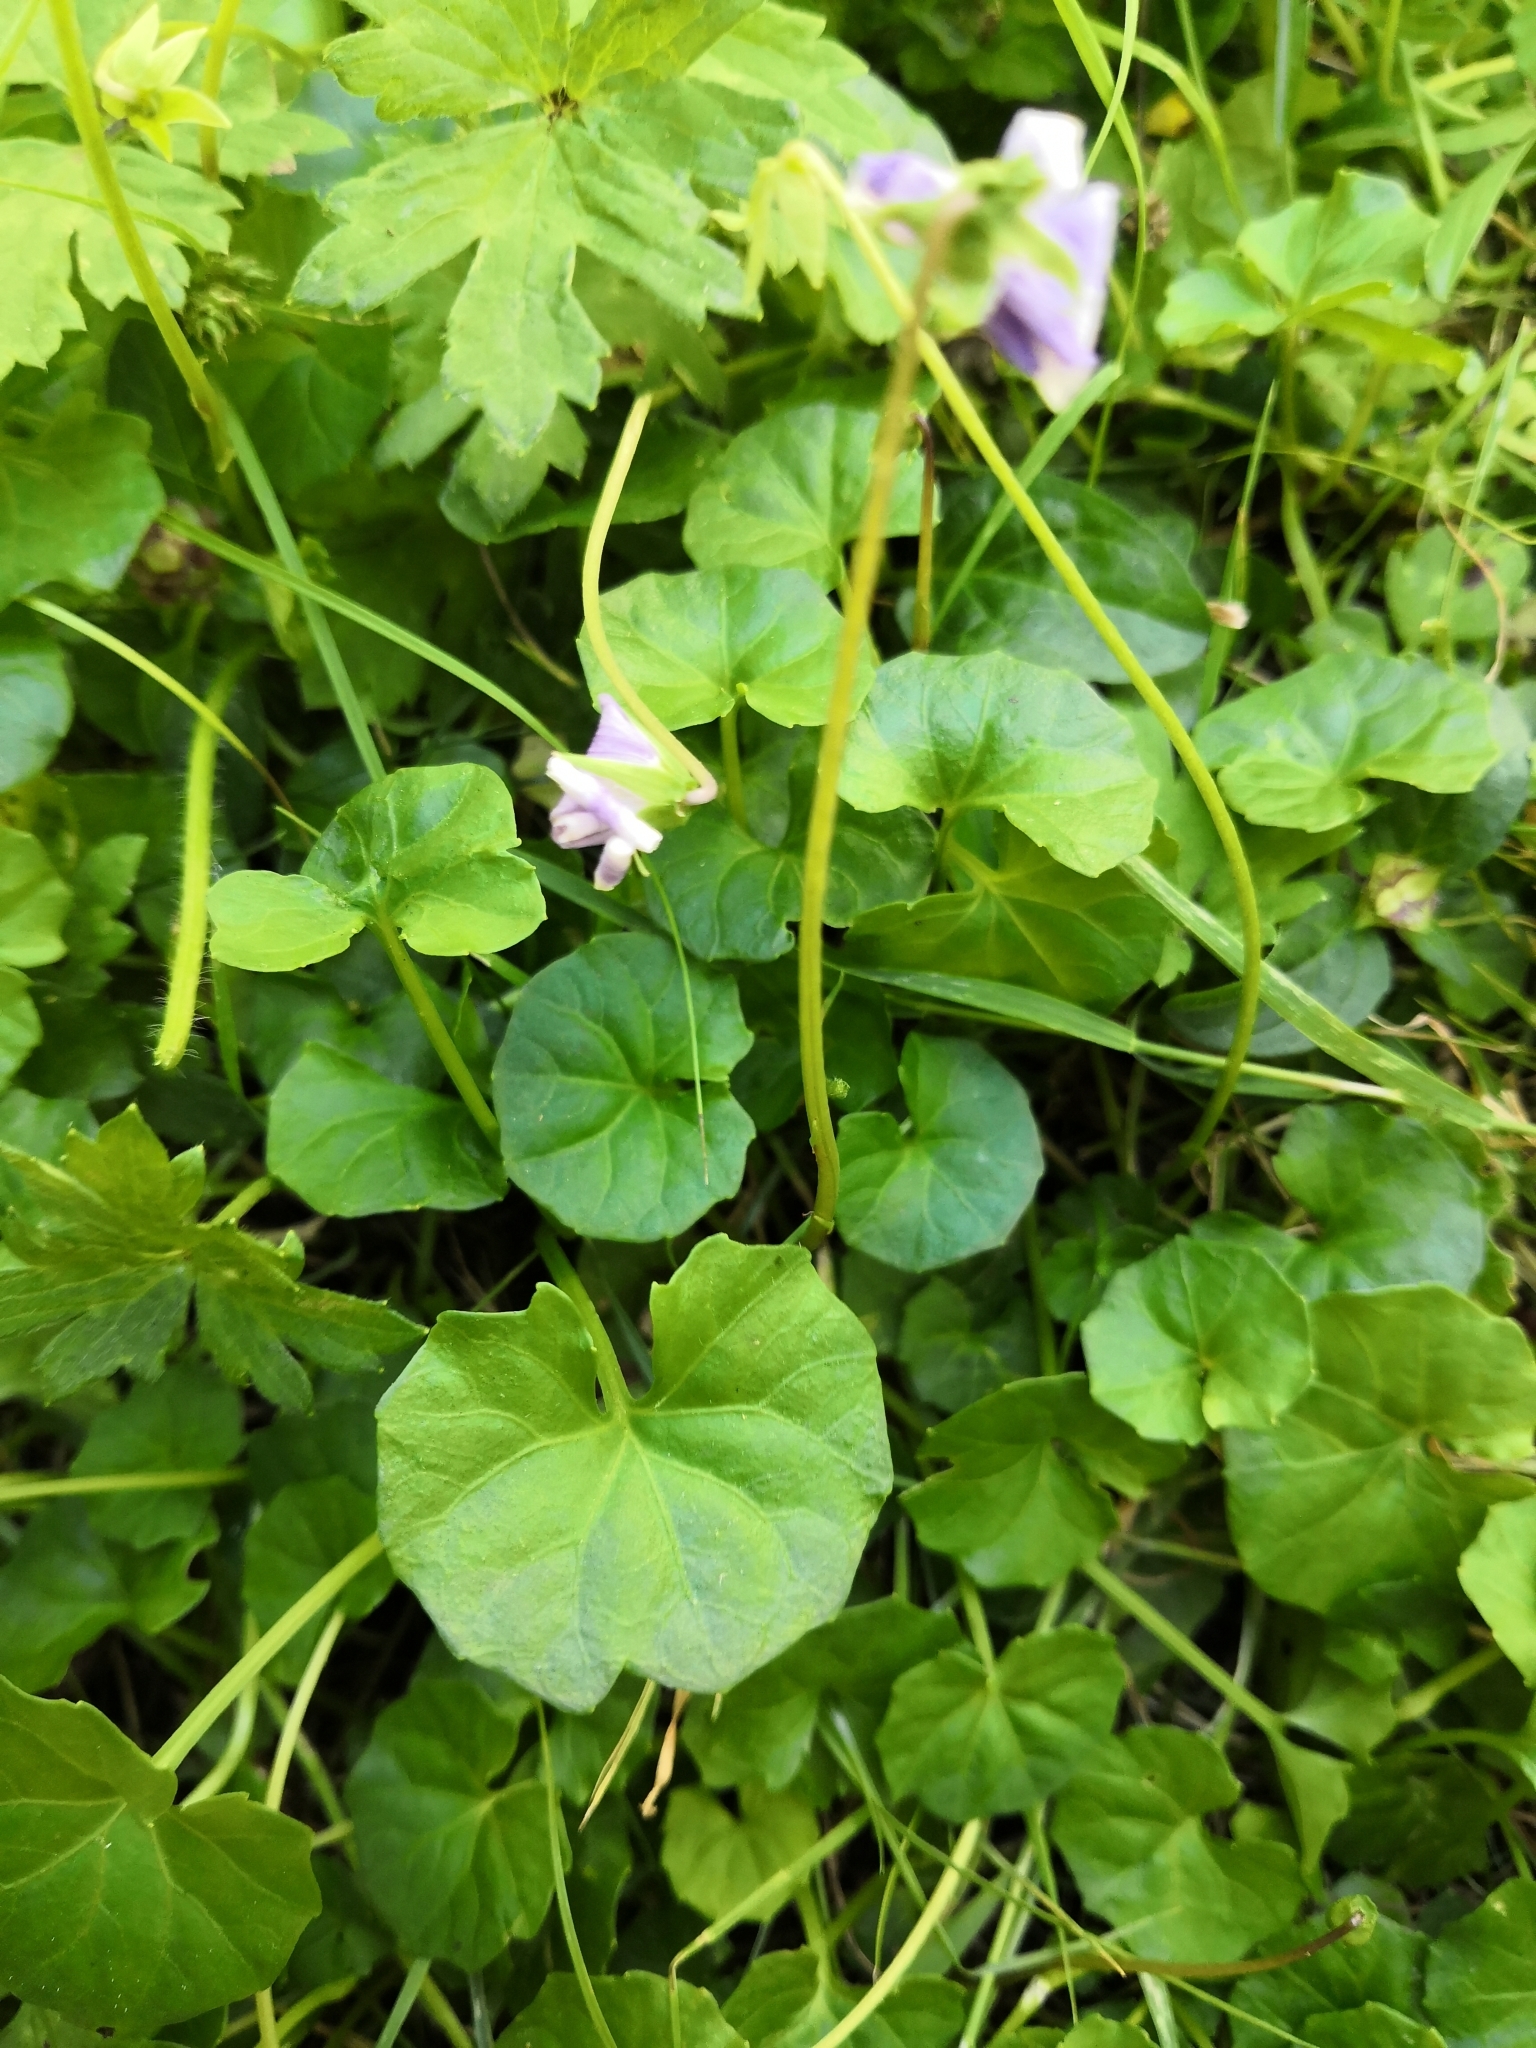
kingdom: Plantae
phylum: Tracheophyta
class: Magnoliopsida
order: Malpighiales
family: Violaceae
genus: Viola
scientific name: Viola banksii
